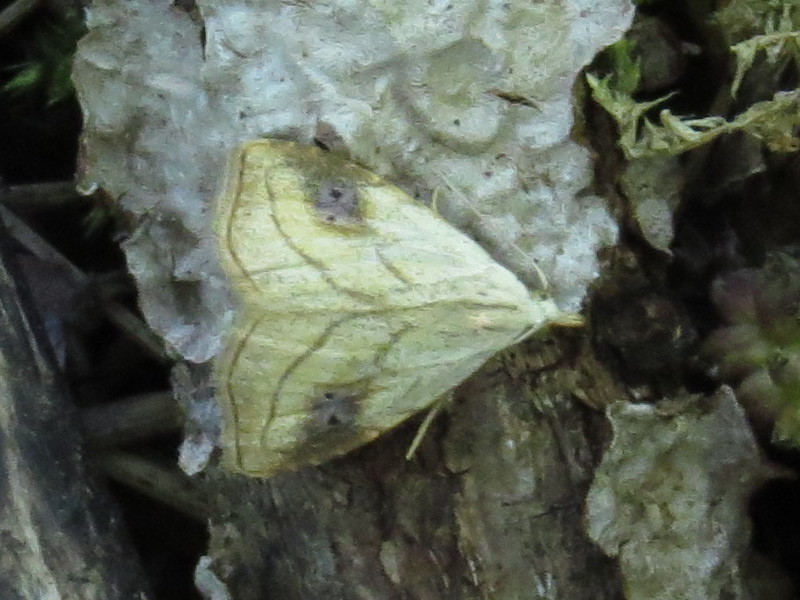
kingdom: Animalia
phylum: Arthropoda
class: Insecta
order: Lepidoptera
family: Erebidae
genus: Rivula
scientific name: Rivula propinqualis
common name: Spotted grass moth
